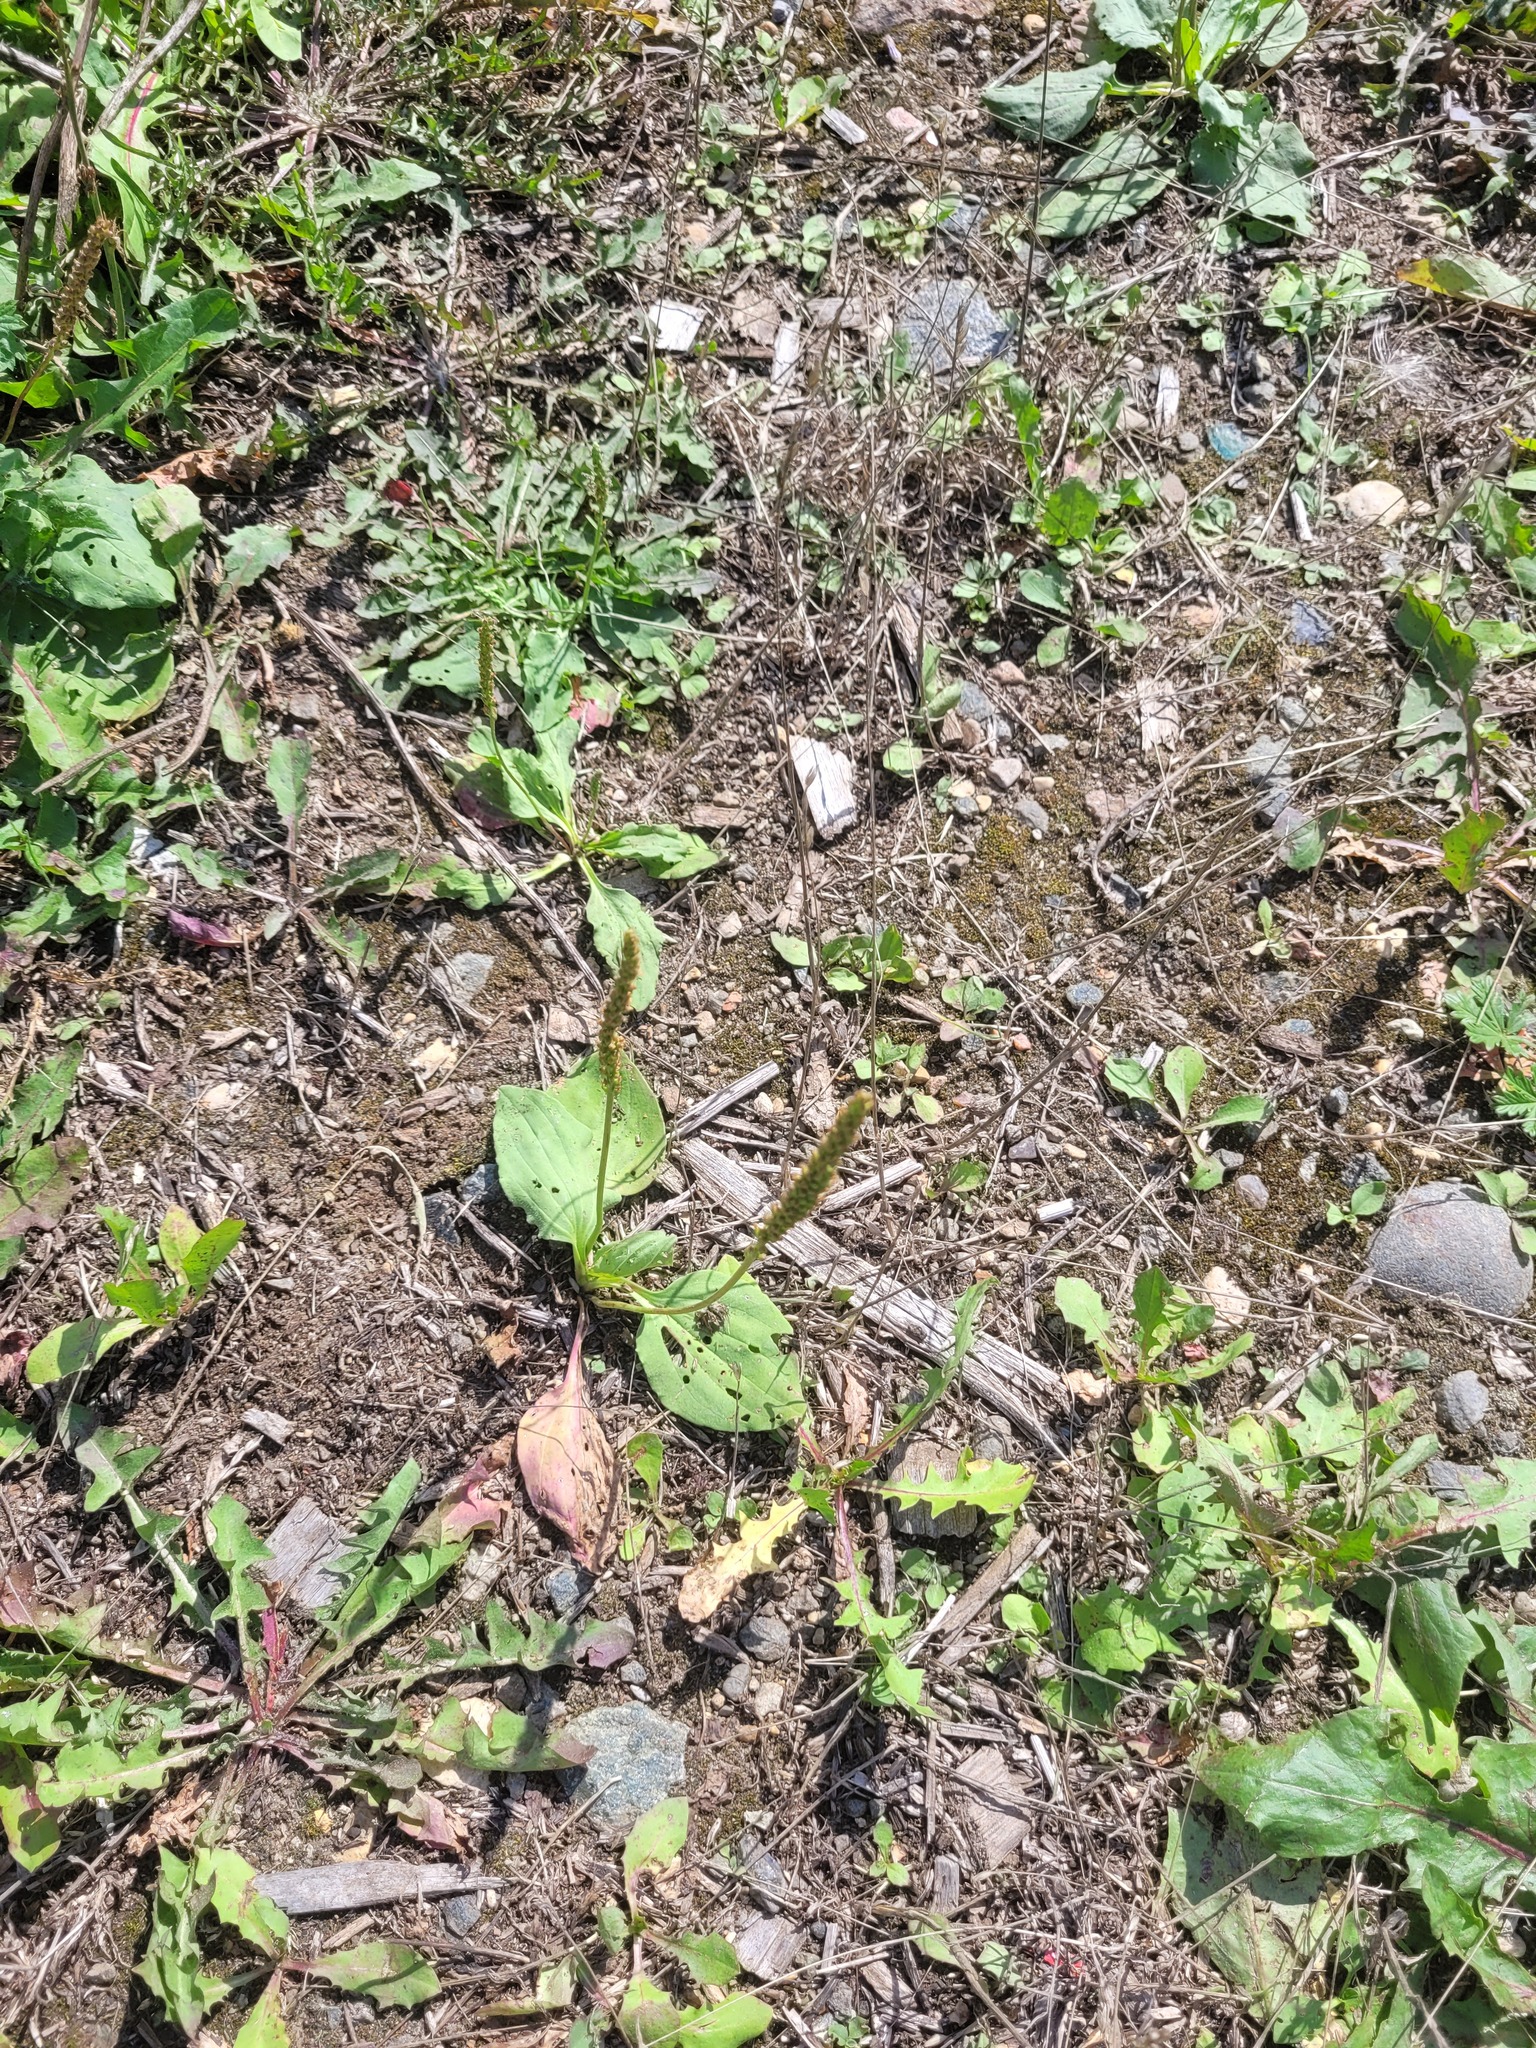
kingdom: Plantae
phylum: Tracheophyta
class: Magnoliopsida
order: Lamiales
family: Plantaginaceae
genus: Plantago
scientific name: Plantago major
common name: Common plantain
